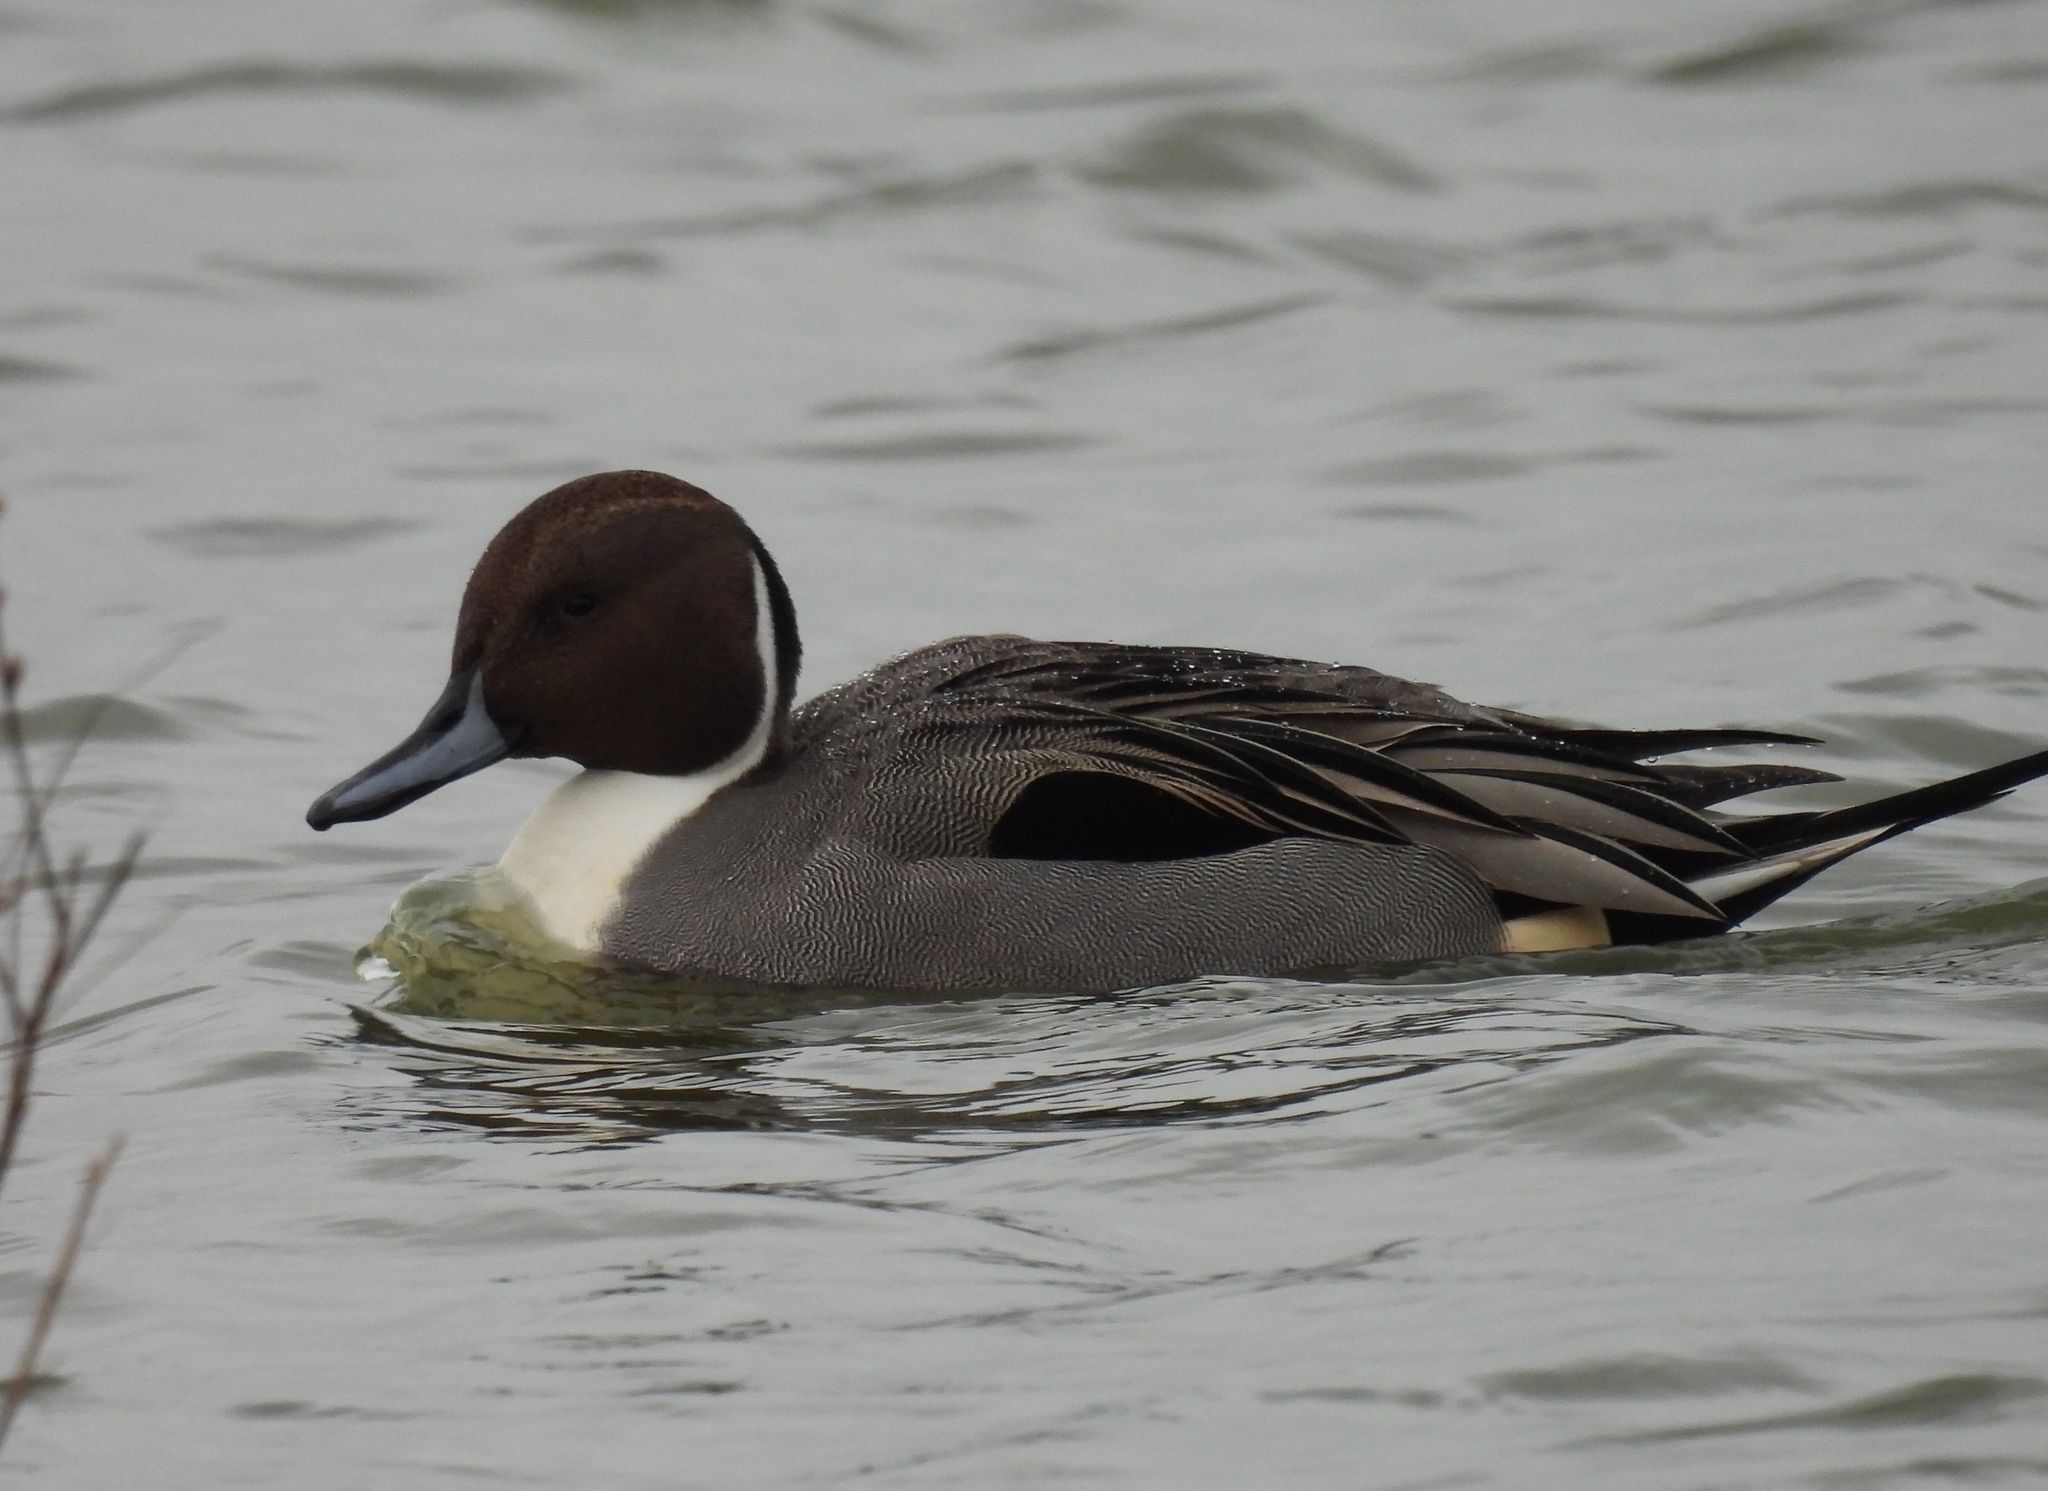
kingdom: Animalia
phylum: Chordata
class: Aves
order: Anseriformes
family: Anatidae
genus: Anas
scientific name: Anas acuta
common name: Northern pintail
